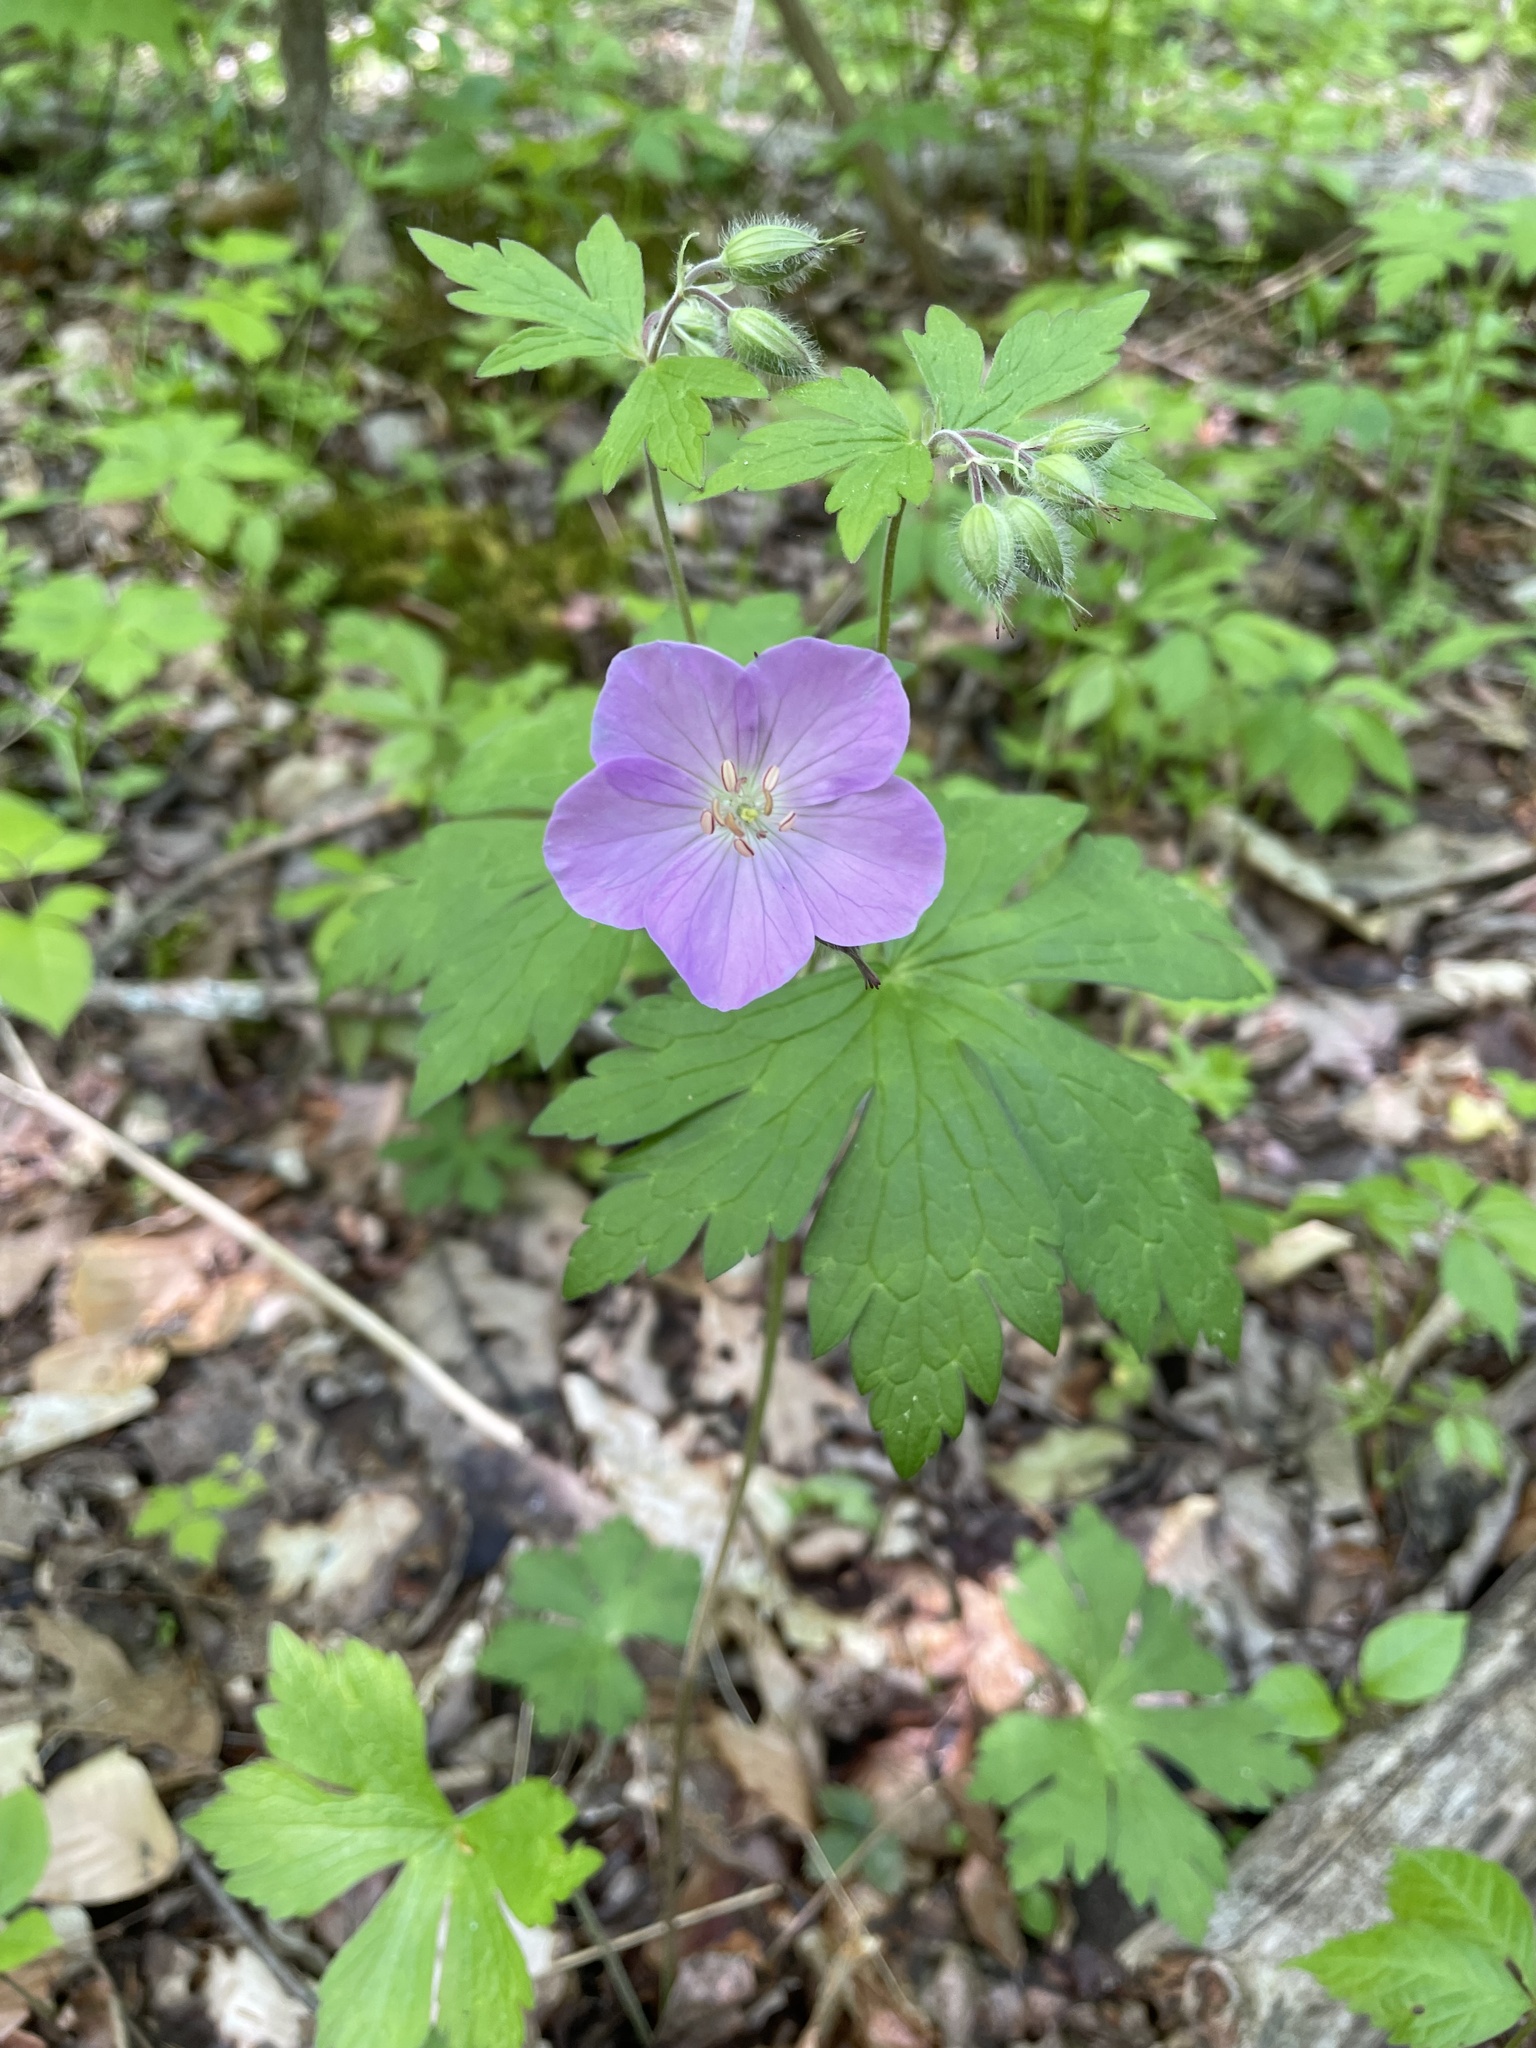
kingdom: Plantae
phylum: Tracheophyta
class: Magnoliopsida
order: Geraniales
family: Geraniaceae
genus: Geranium
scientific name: Geranium maculatum
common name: Spotted geranium
